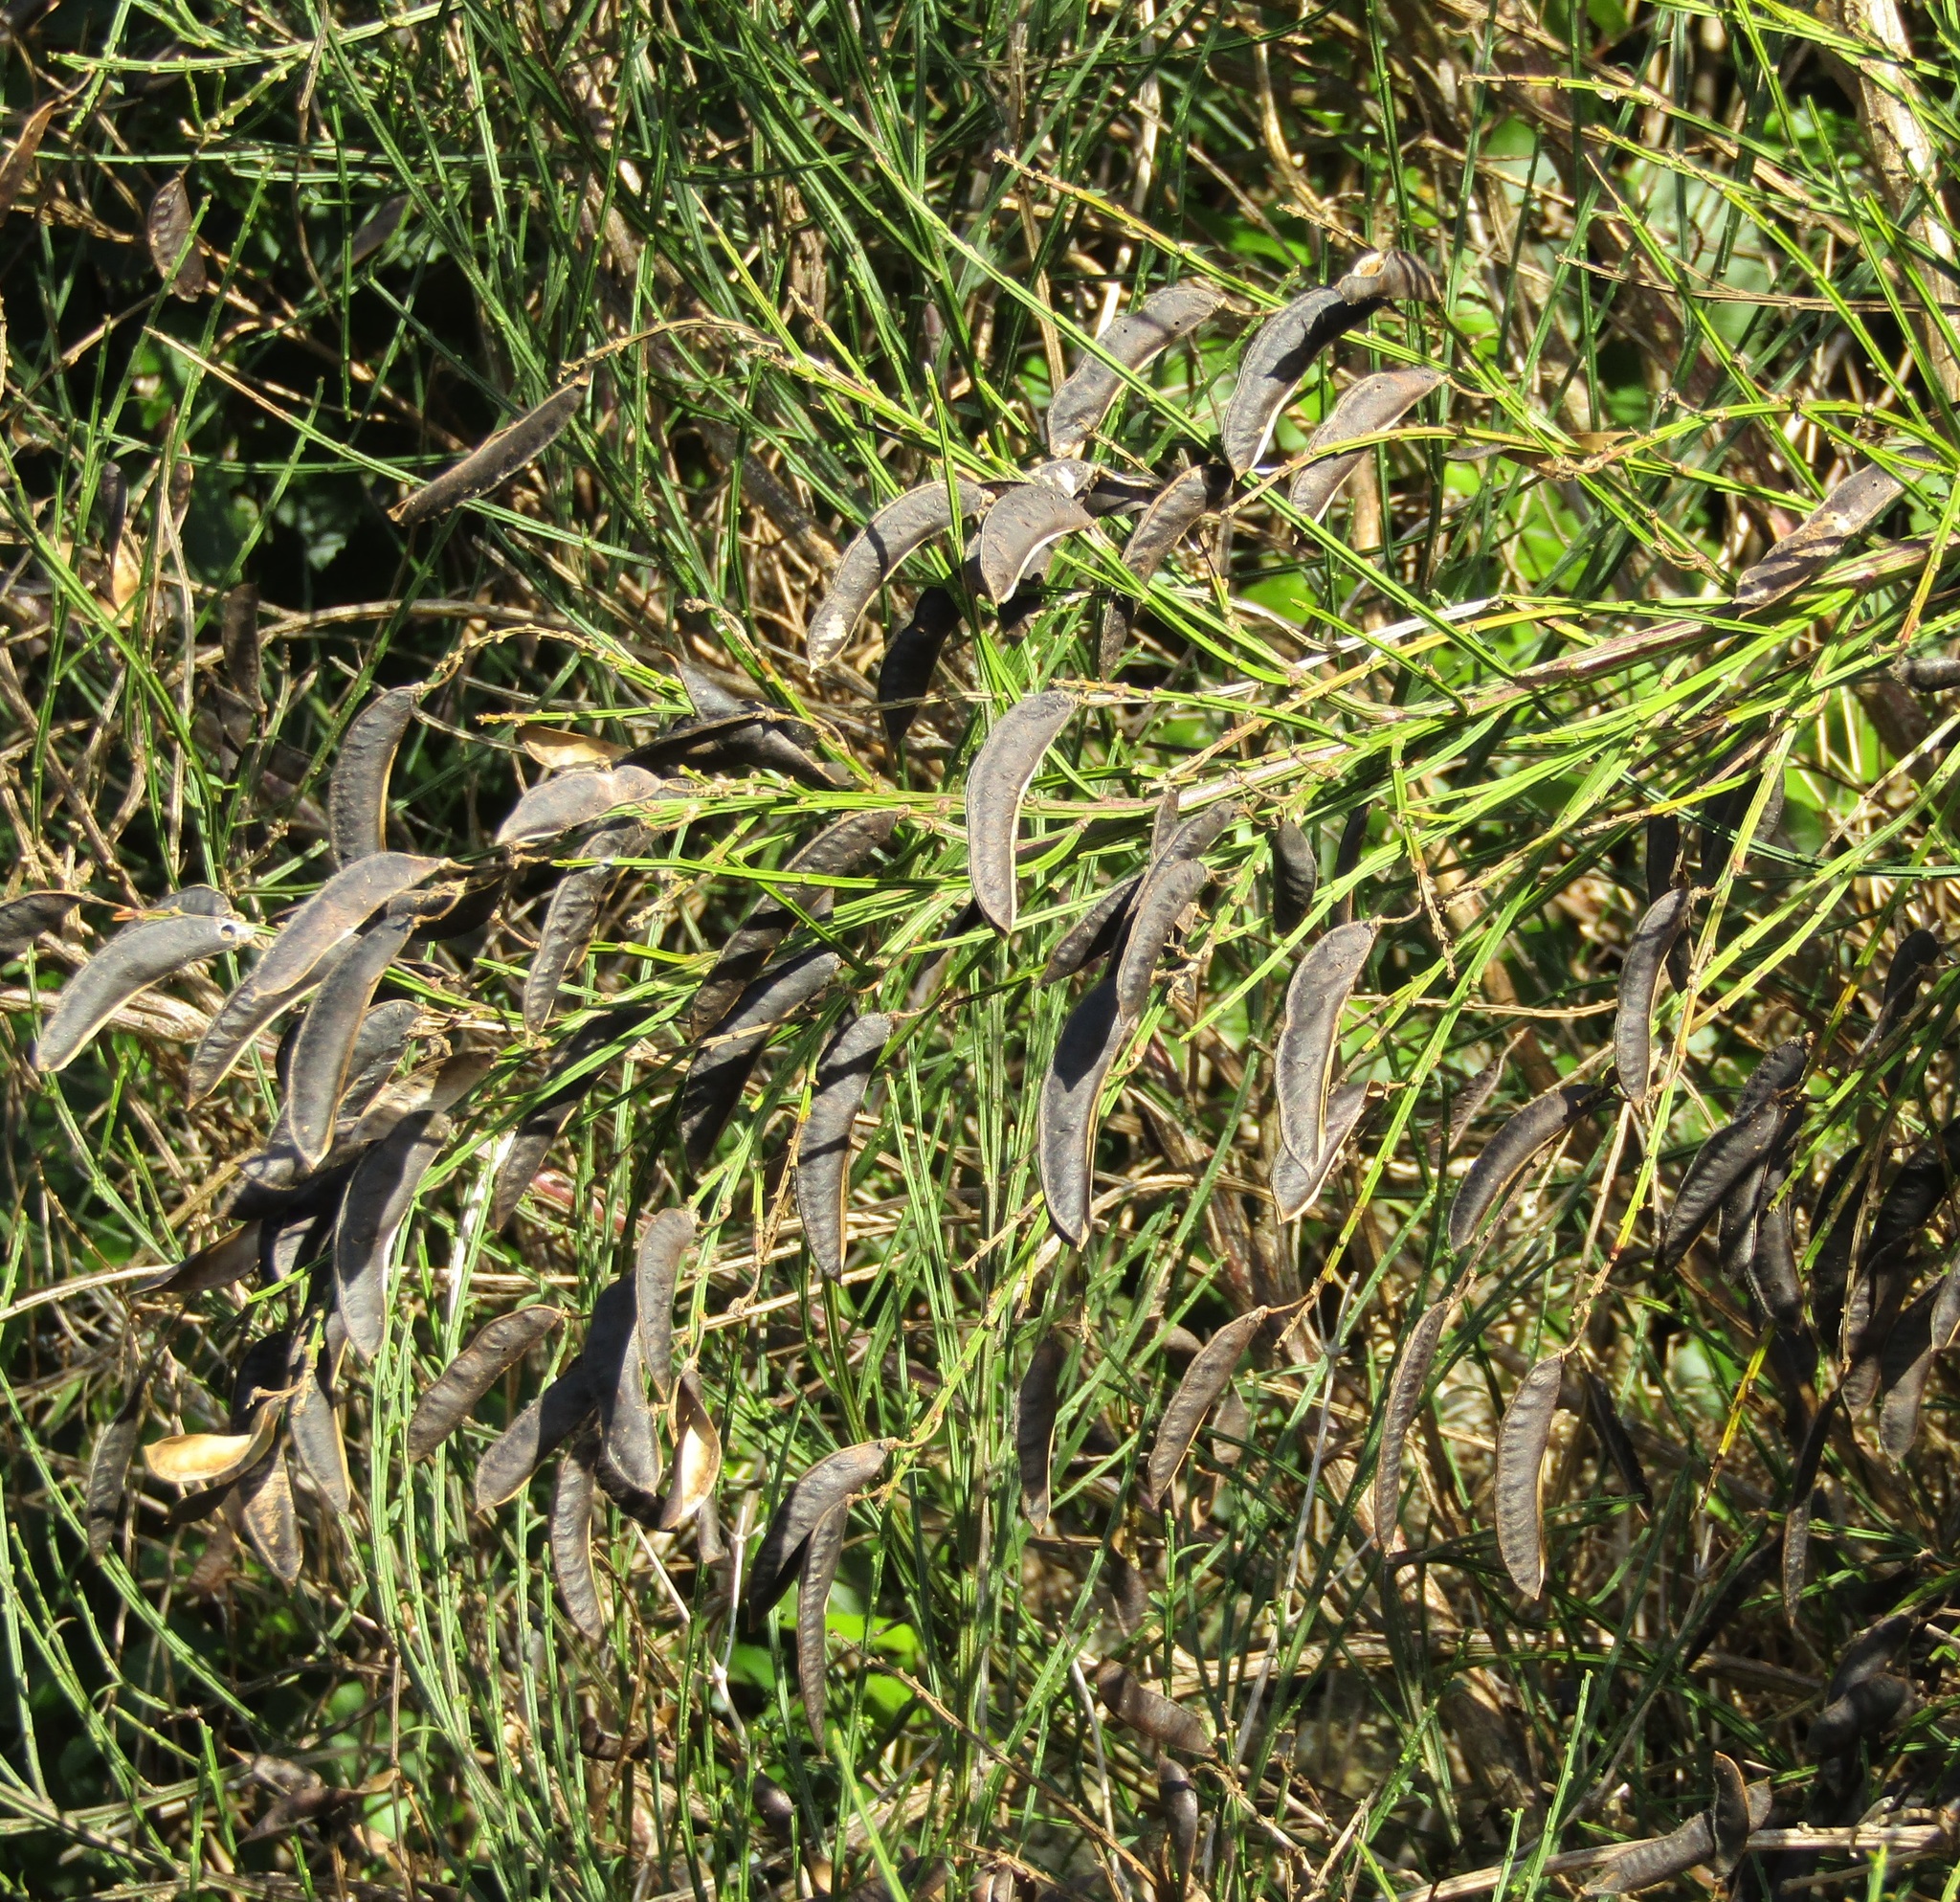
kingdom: Plantae
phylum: Tracheophyta
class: Magnoliopsida
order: Fabales
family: Fabaceae
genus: Cytisus
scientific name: Cytisus scoparius
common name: Scotch broom
